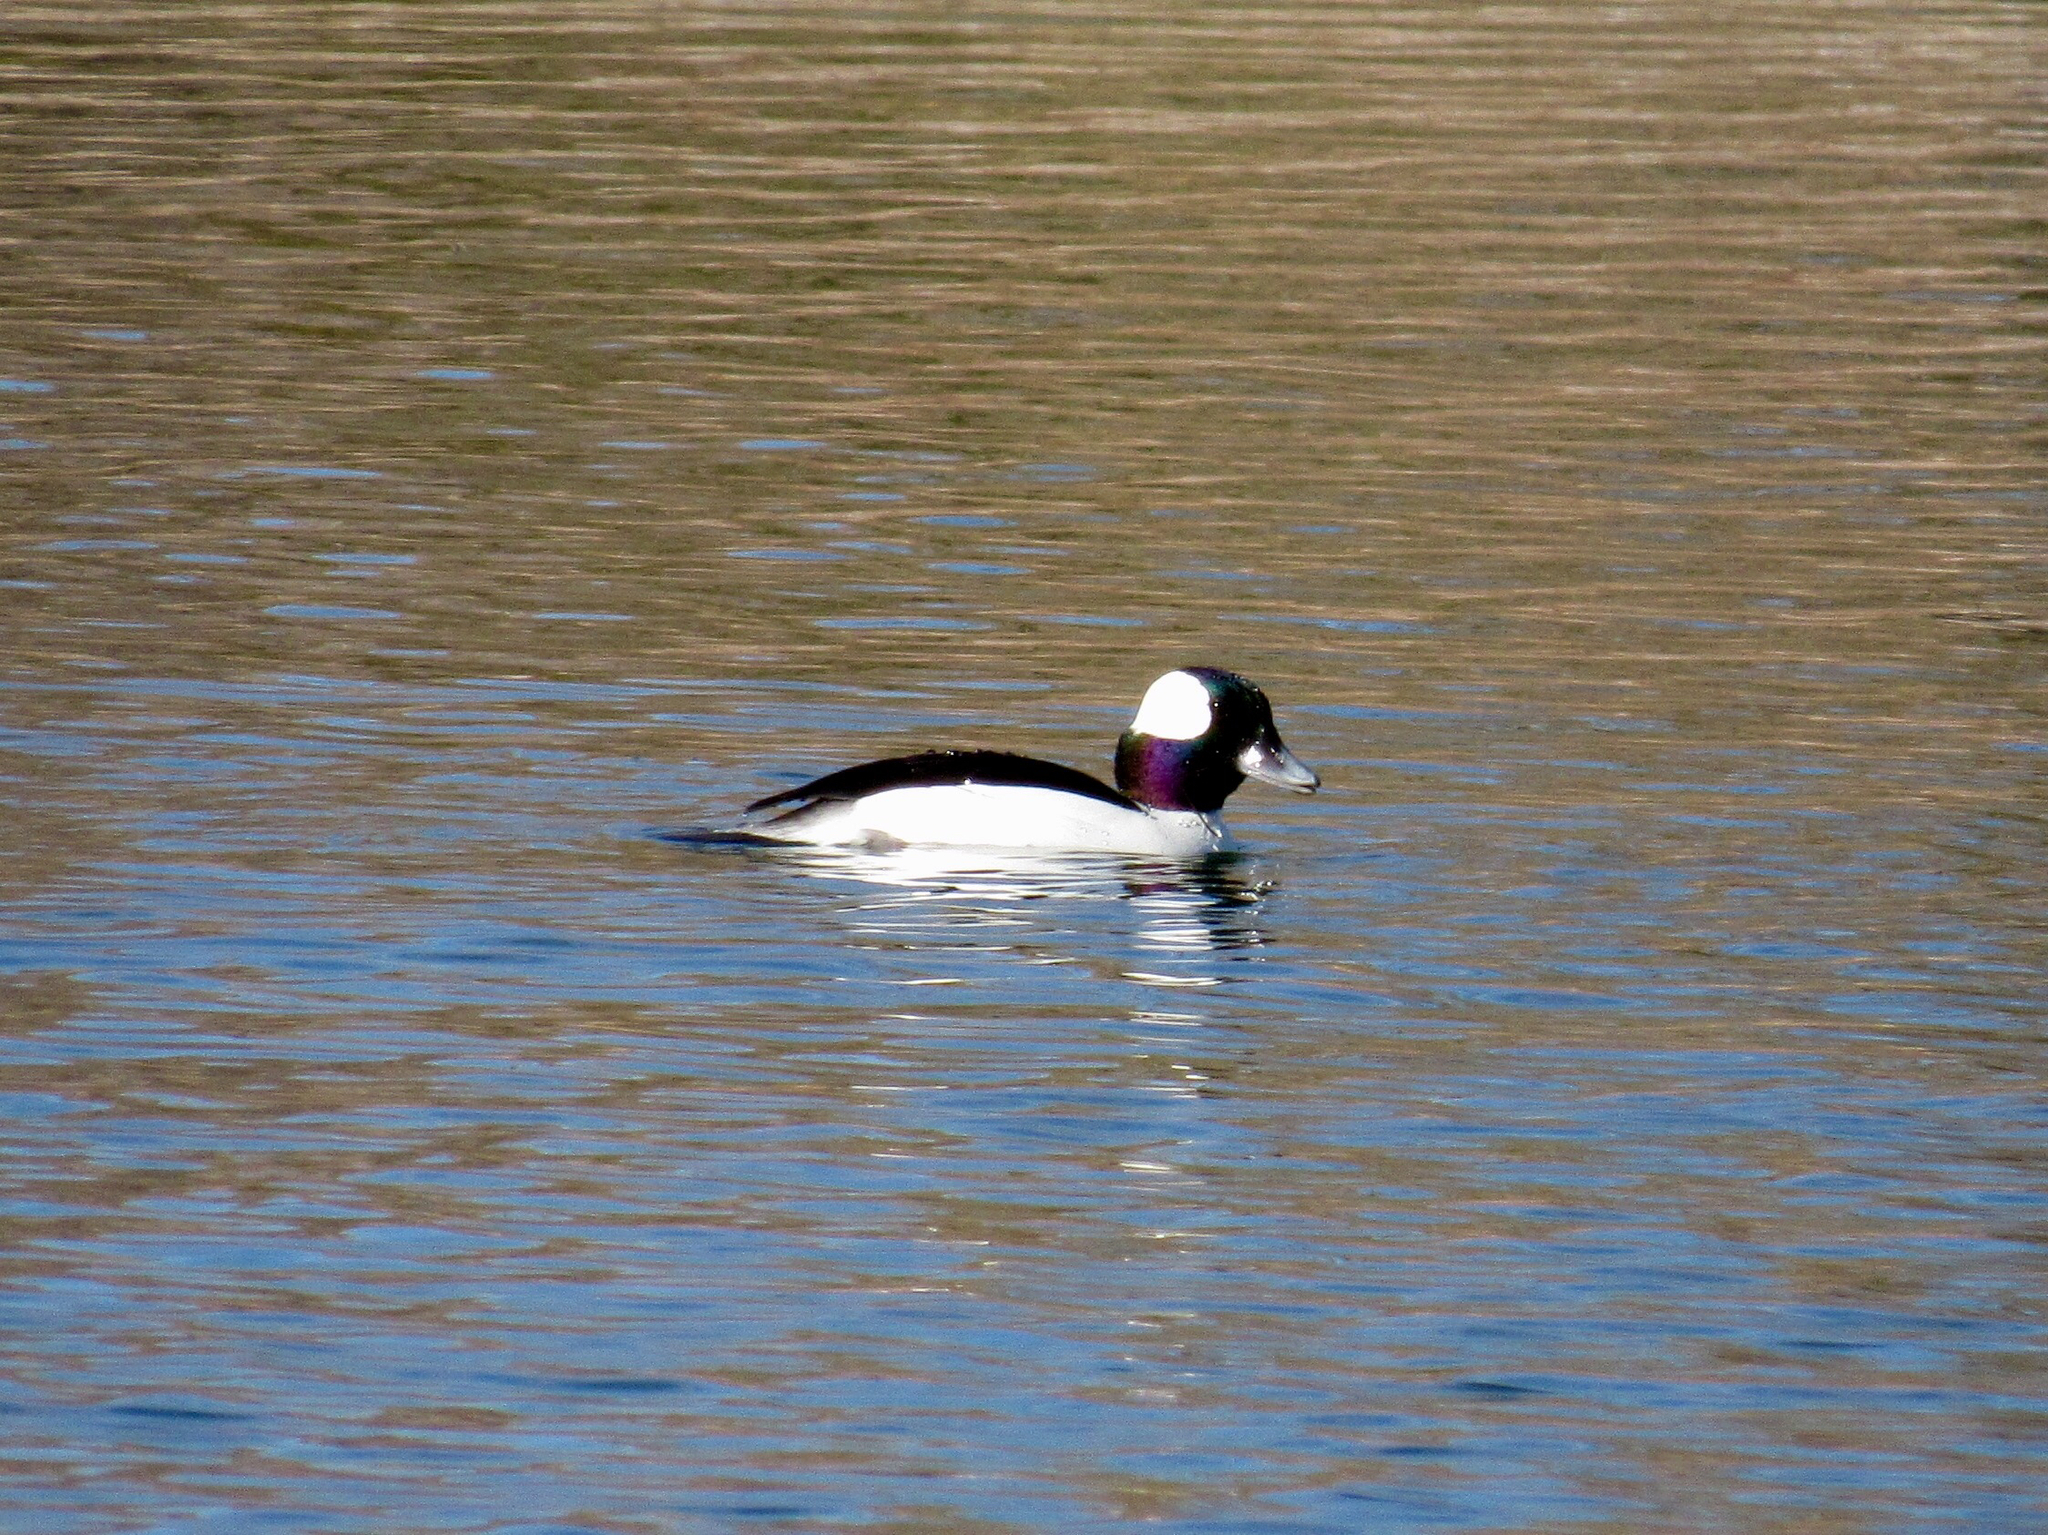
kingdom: Animalia
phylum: Chordata
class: Aves
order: Anseriformes
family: Anatidae
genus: Bucephala
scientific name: Bucephala albeola
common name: Bufflehead
